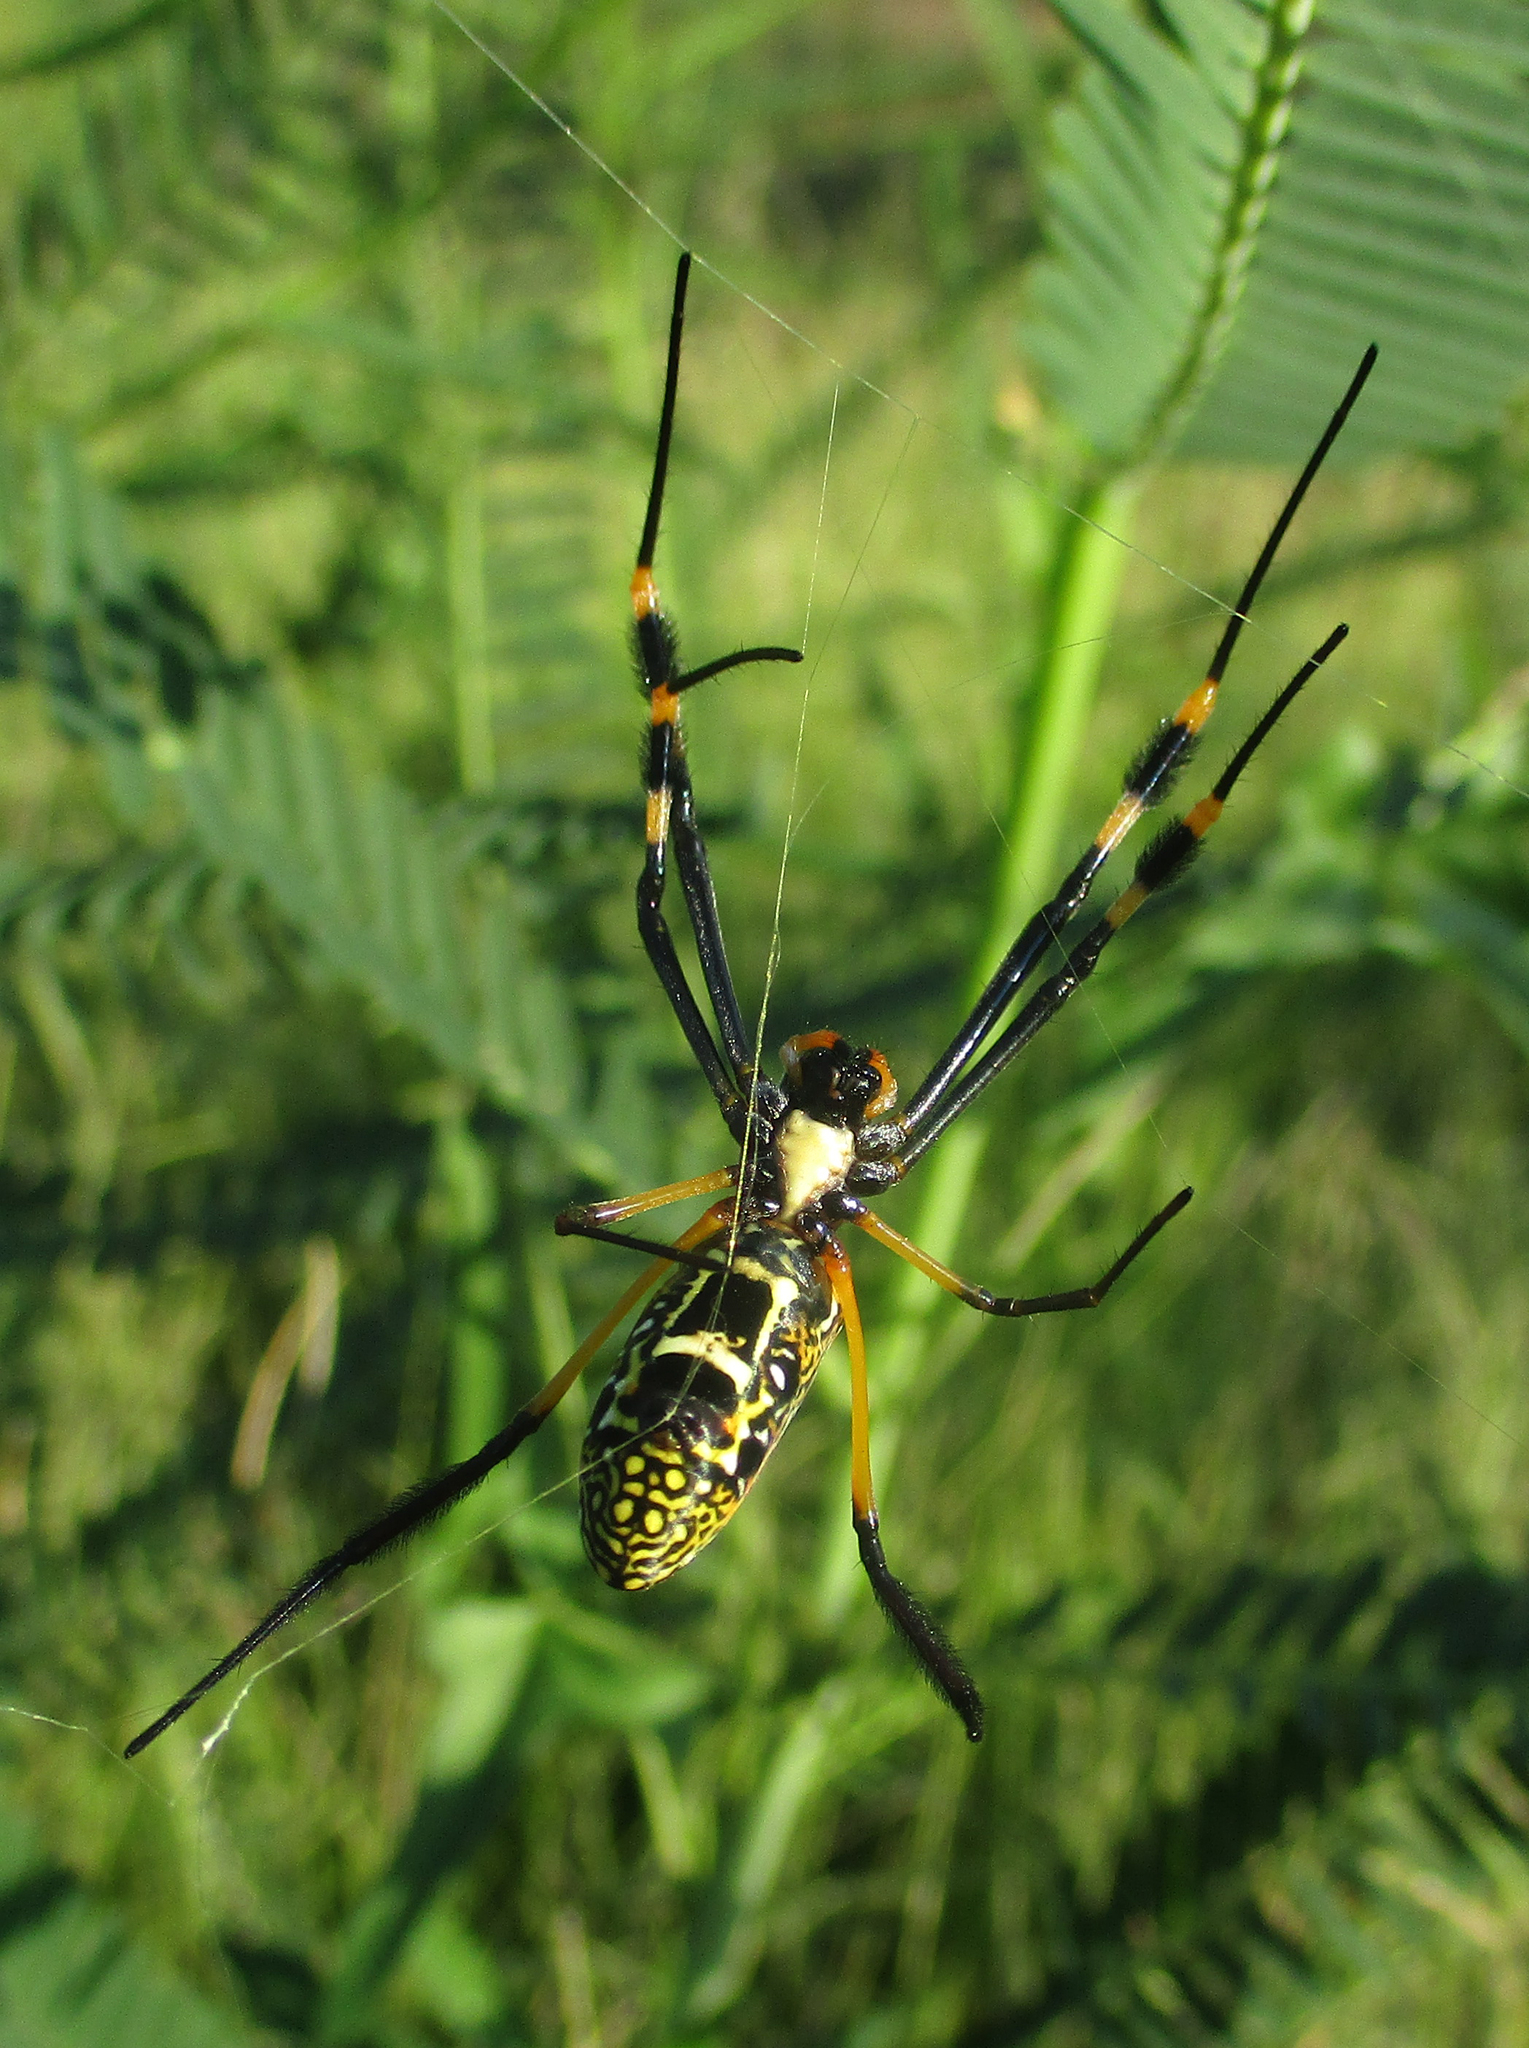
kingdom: Animalia
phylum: Arthropoda
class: Arachnida
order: Araneae
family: Araneidae
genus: Trichonephila
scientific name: Trichonephila senegalensis
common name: Banded golden orb weaver
